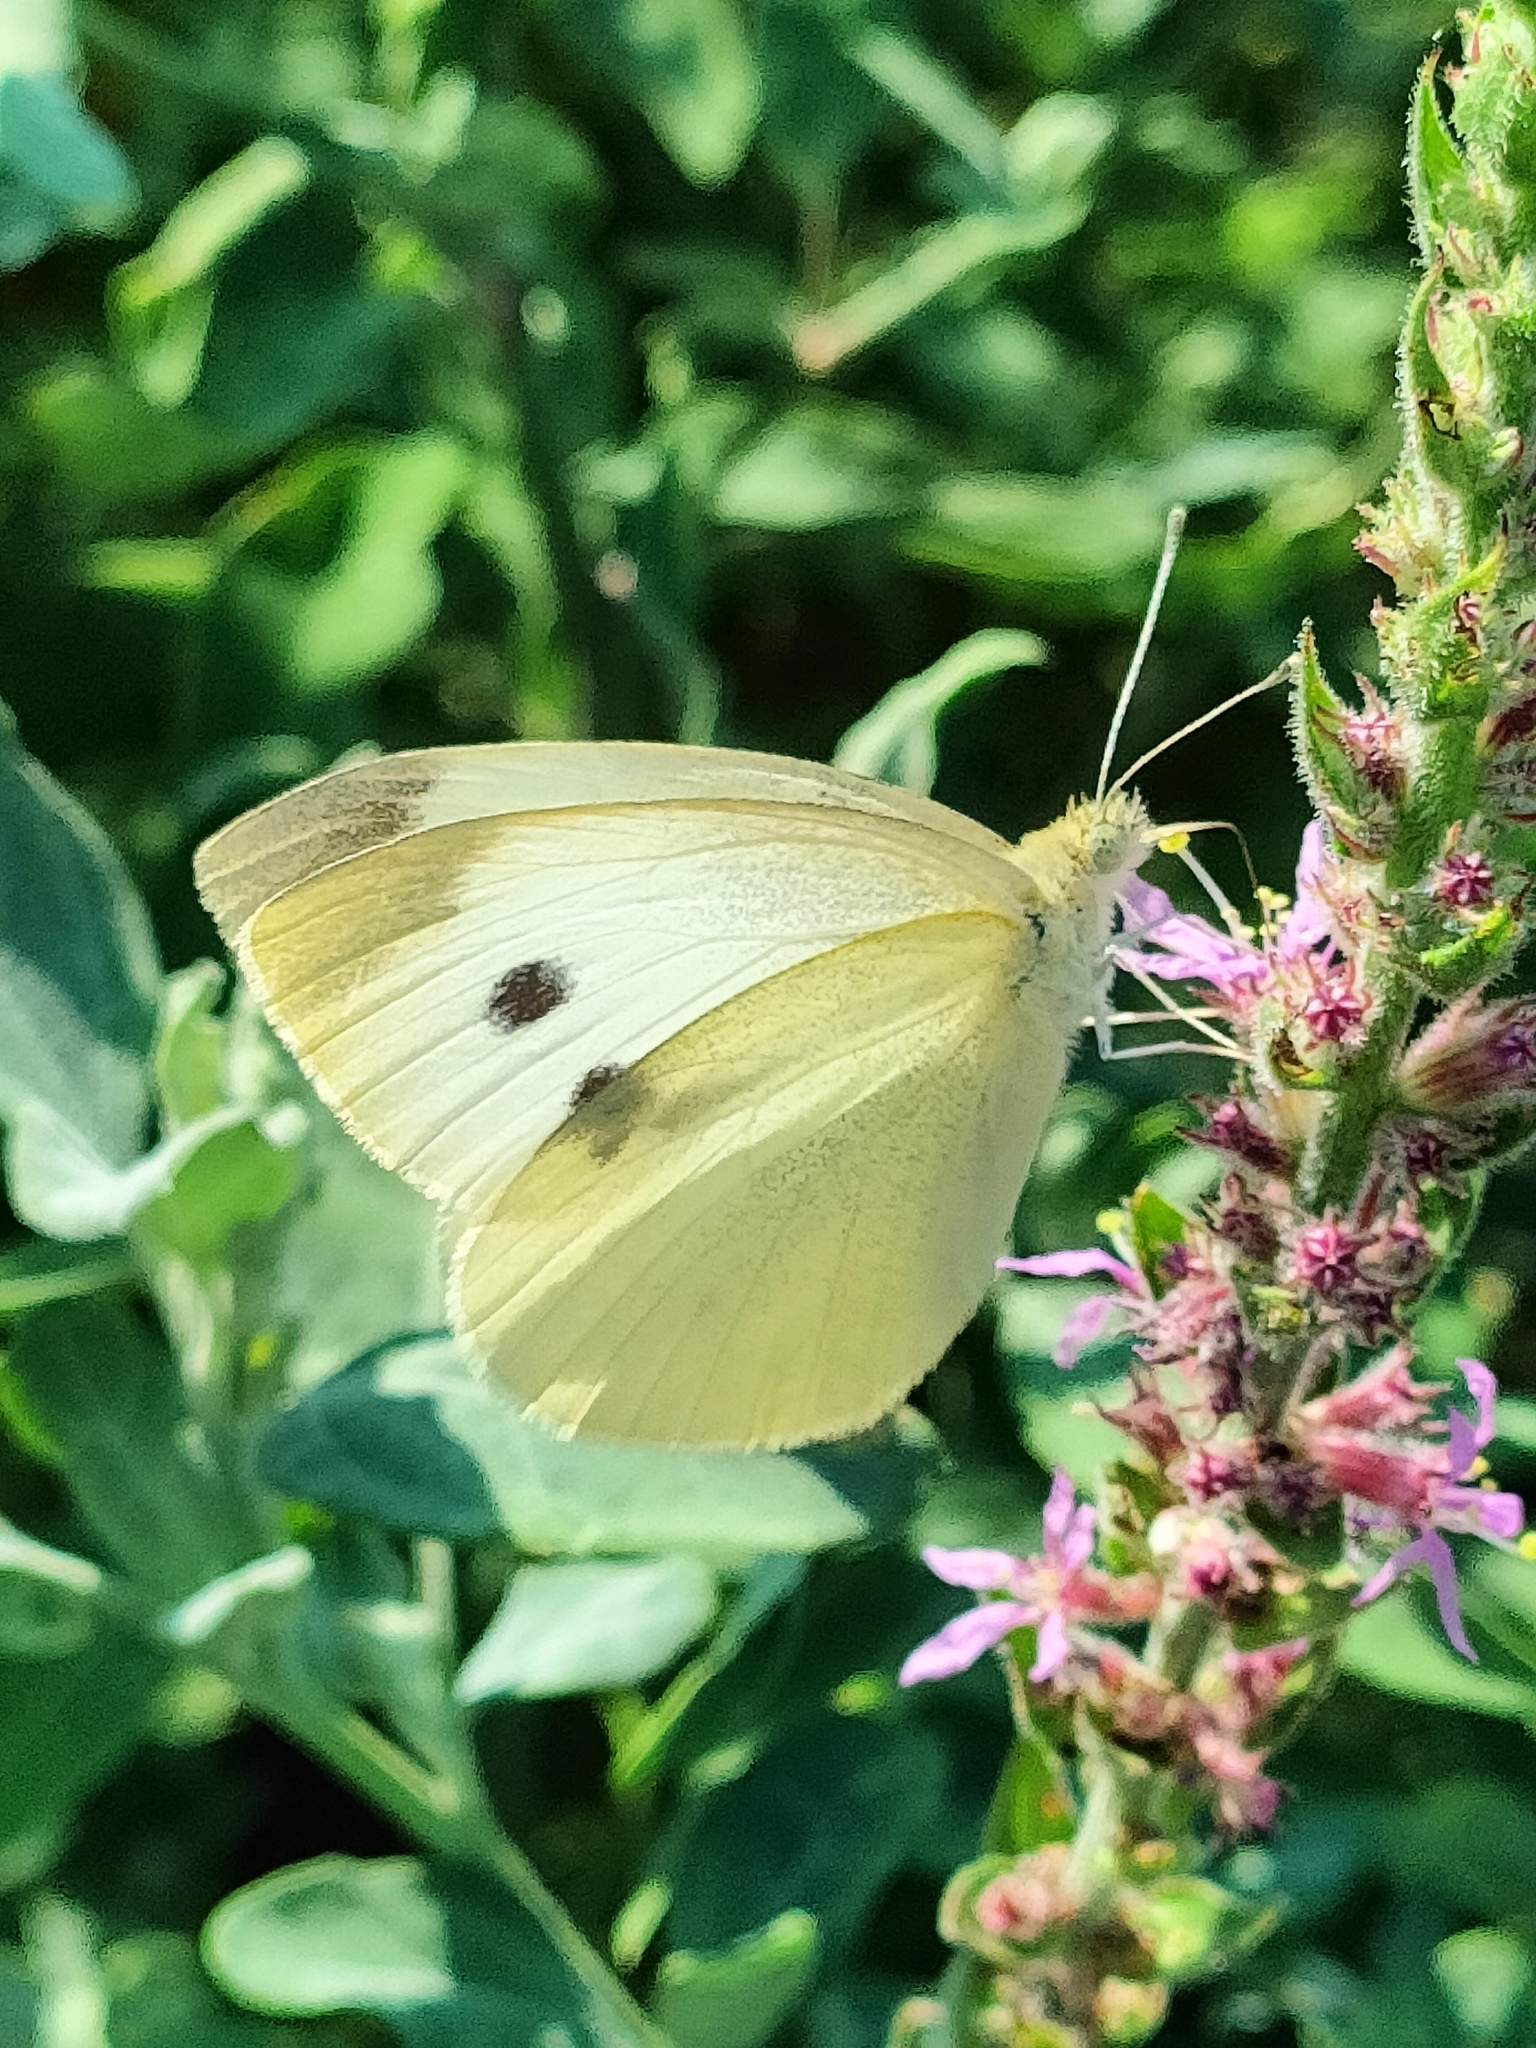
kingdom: Animalia
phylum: Arthropoda
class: Insecta
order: Lepidoptera
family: Pieridae
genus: Pieris
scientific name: Pieris rapae
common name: Small white
